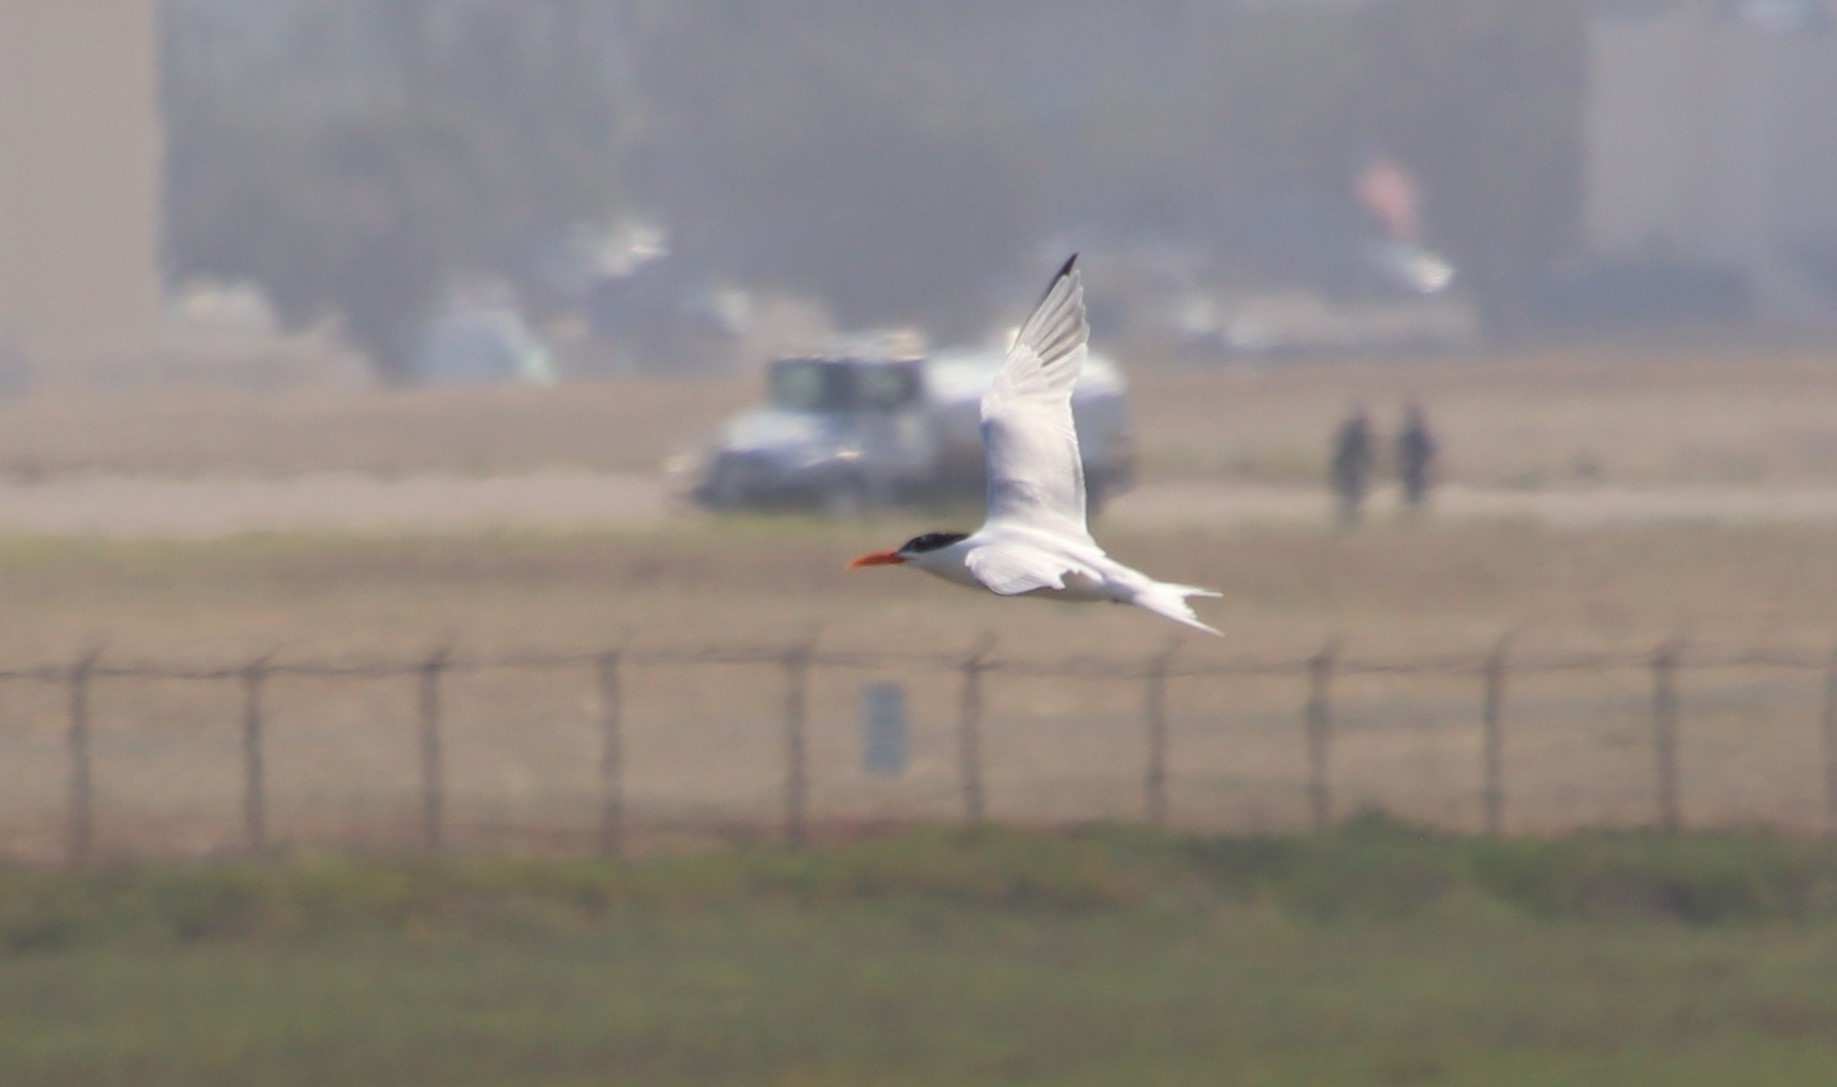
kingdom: Animalia
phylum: Chordata
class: Aves
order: Charadriiformes
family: Laridae
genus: Thalasseus
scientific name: Thalasseus maximus
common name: Royal tern
